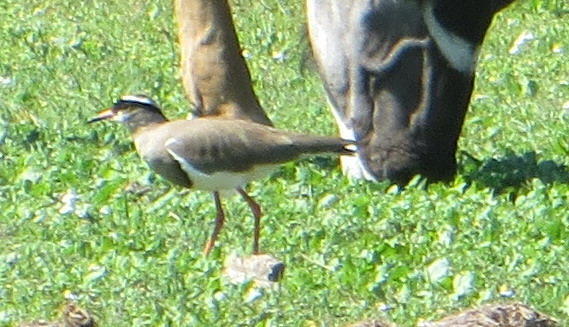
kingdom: Animalia
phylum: Chordata
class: Aves
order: Charadriiformes
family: Charadriidae
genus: Vanellus
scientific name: Vanellus coronatus
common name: Crowned lapwing
